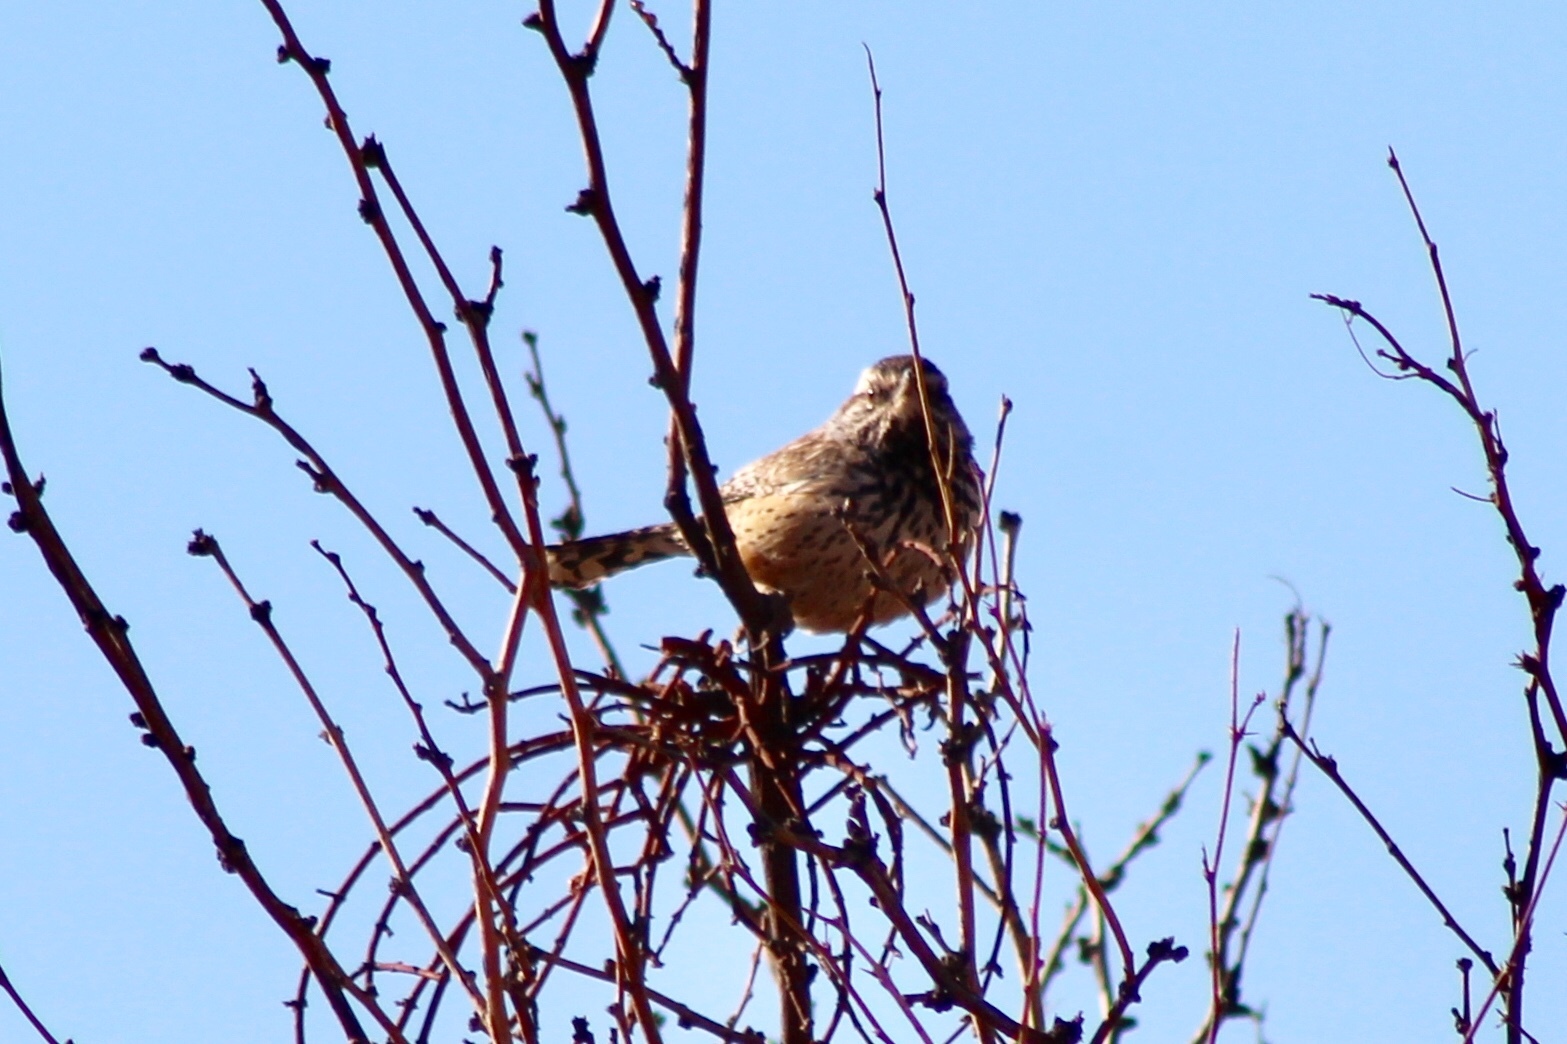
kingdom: Animalia
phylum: Chordata
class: Aves
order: Passeriformes
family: Troglodytidae
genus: Campylorhynchus
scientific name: Campylorhynchus brunneicapillus
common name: Cactus wren
